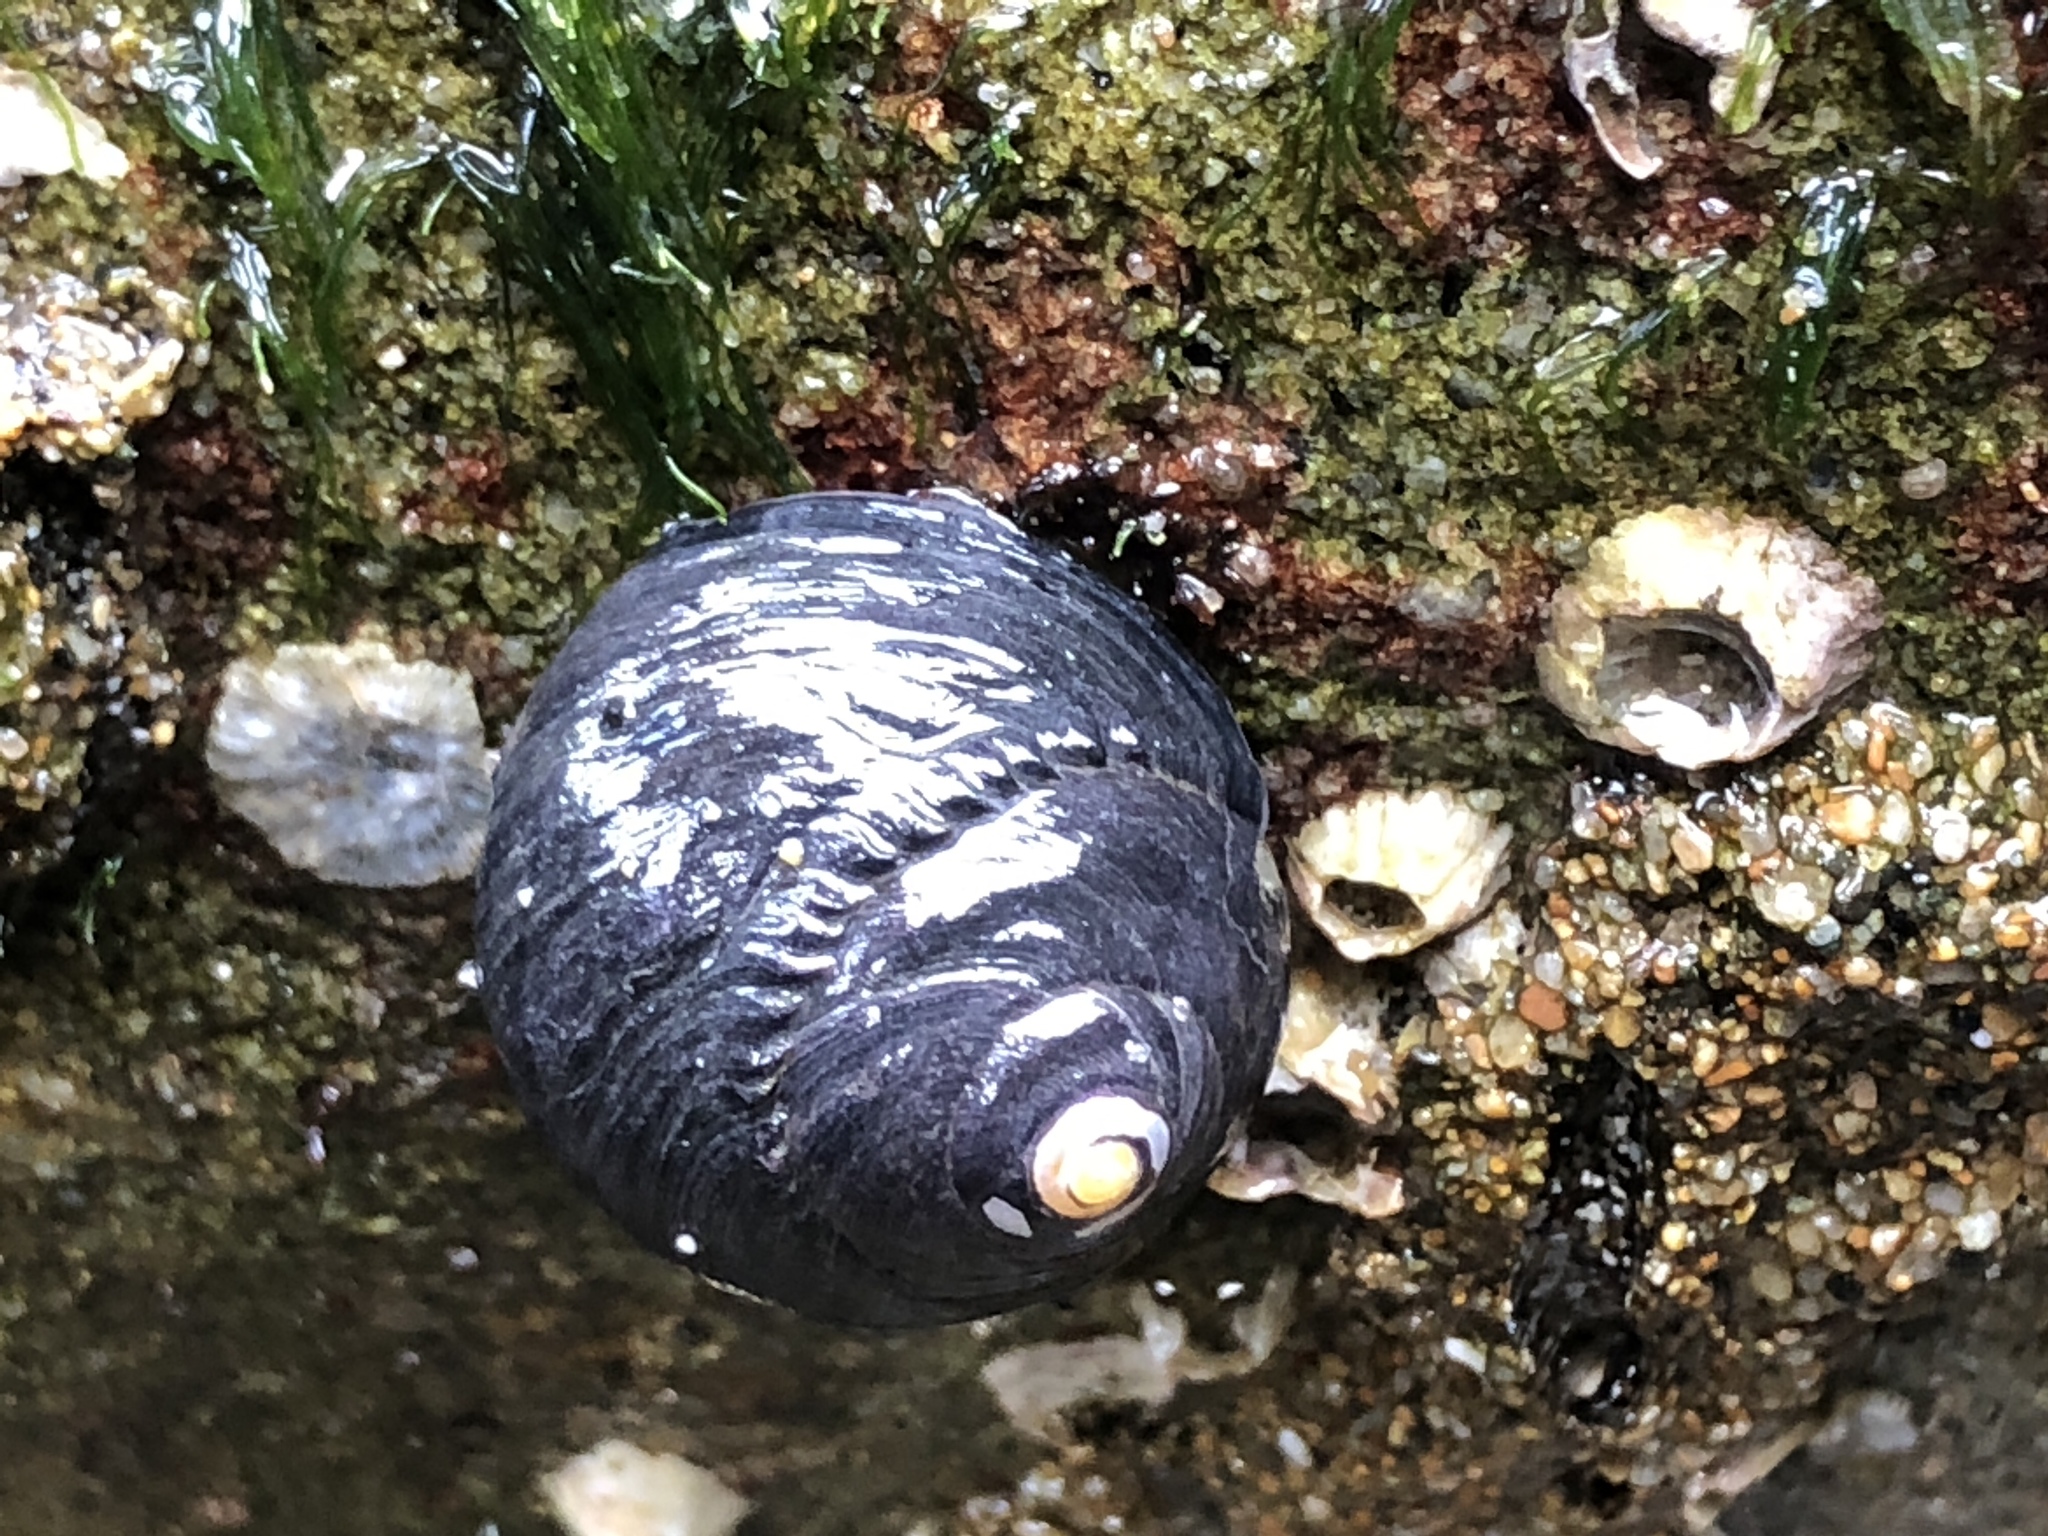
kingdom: Animalia
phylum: Mollusca
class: Gastropoda
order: Trochida
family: Tegulidae
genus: Tegula
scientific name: Tegula funebralis
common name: Black tegula
